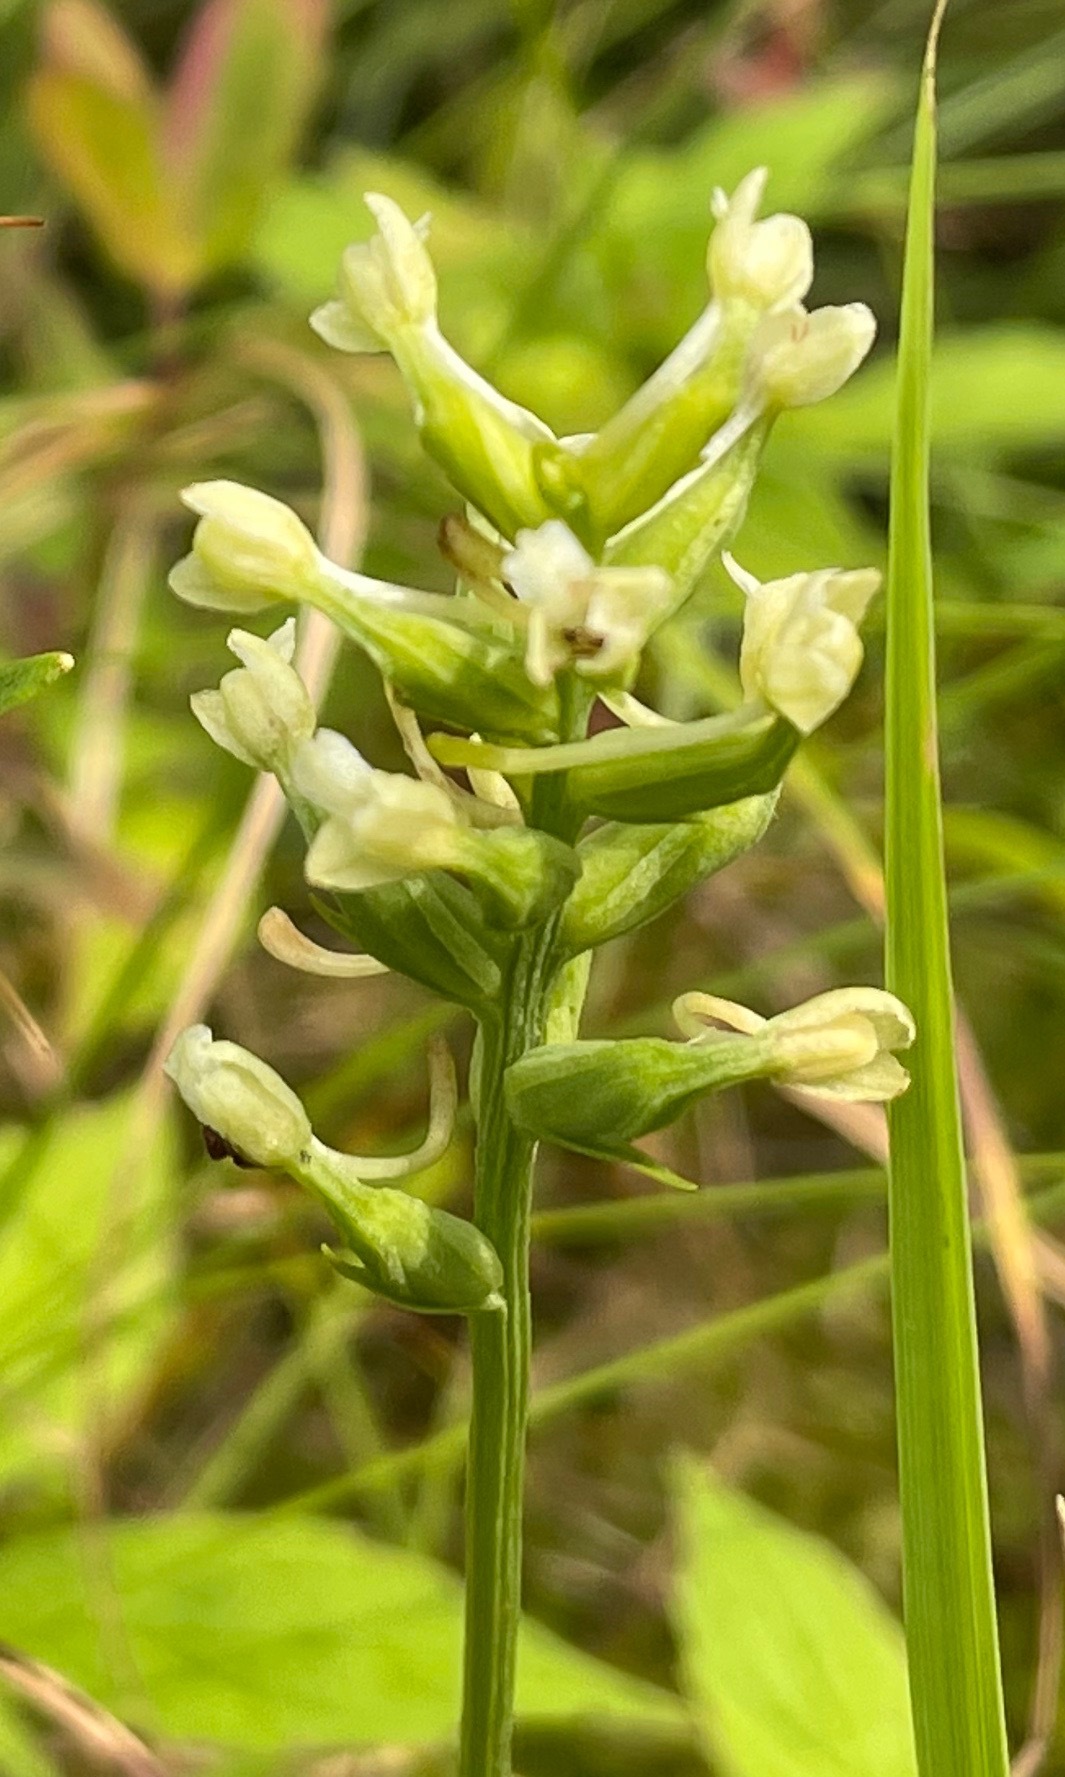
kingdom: Plantae
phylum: Tracheophyta
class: Liliopsida
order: Asparagales
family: Orchidaceae
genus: Platanthera
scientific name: Platanthera clavellata
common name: Club-spur orchid
